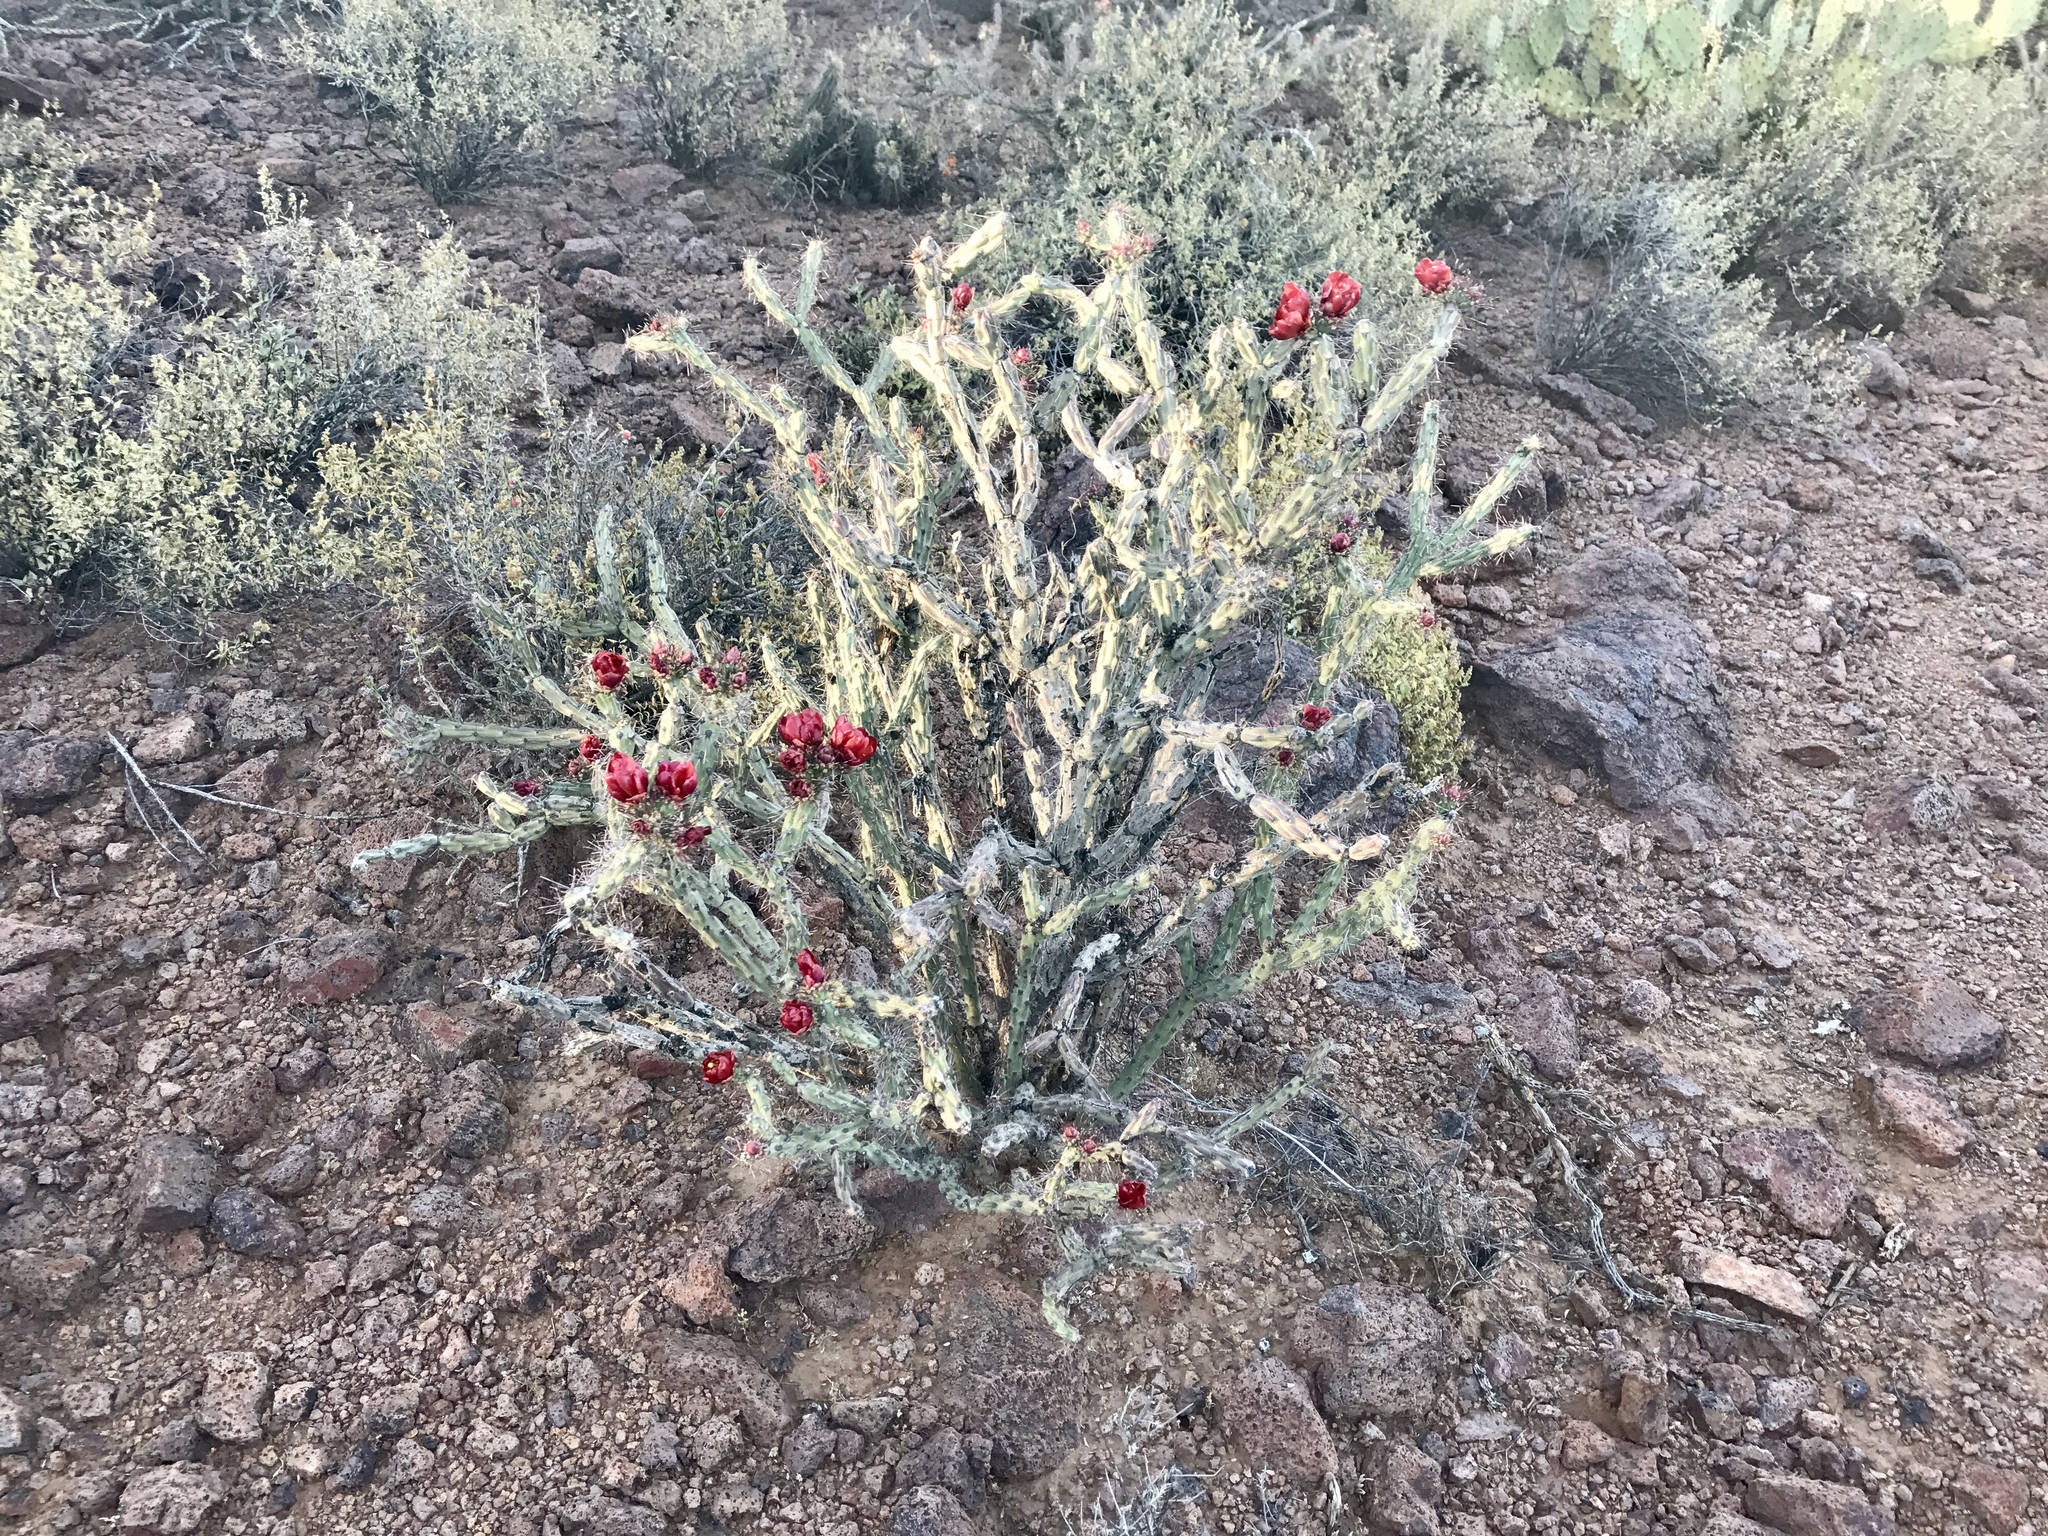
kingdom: Plantae
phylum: Tracheophyta
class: Magnoliopsida
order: Caryophyllales
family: Cactaceae
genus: Cylindropuntia
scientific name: Cylindropuntia acanthocarpa
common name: Buckhorn cholla
